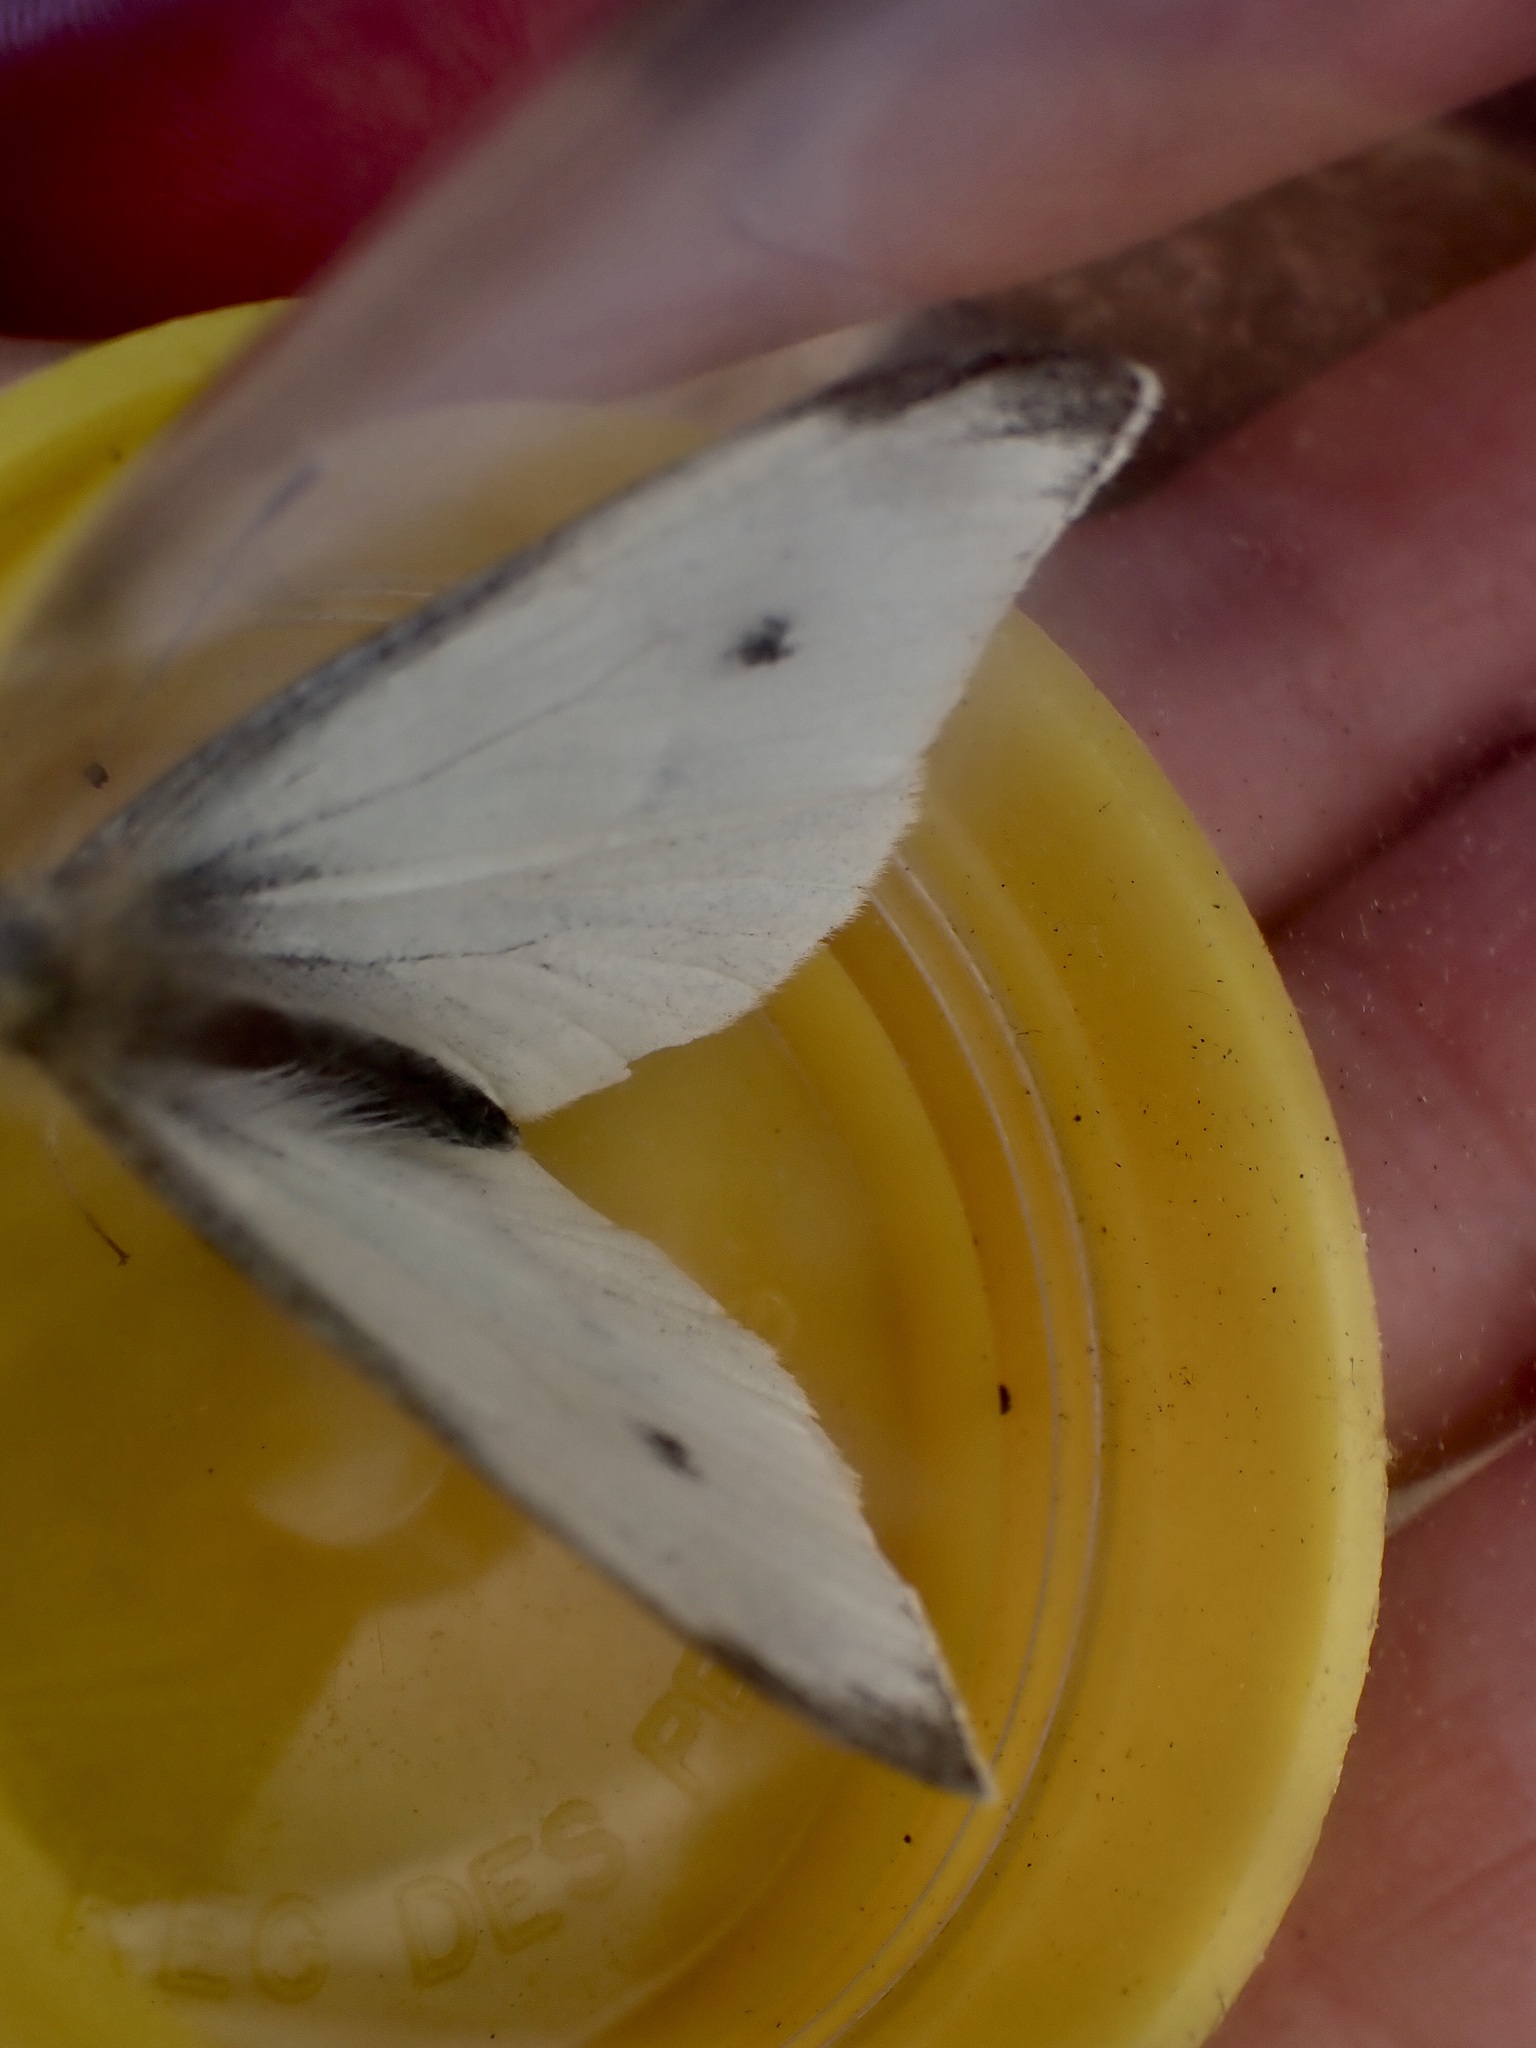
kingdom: Animalia
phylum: Arthropoda
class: Insecta
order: Lepidoptera
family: Pieridae
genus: Pieris
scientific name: Pieris rapae
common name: Small white
